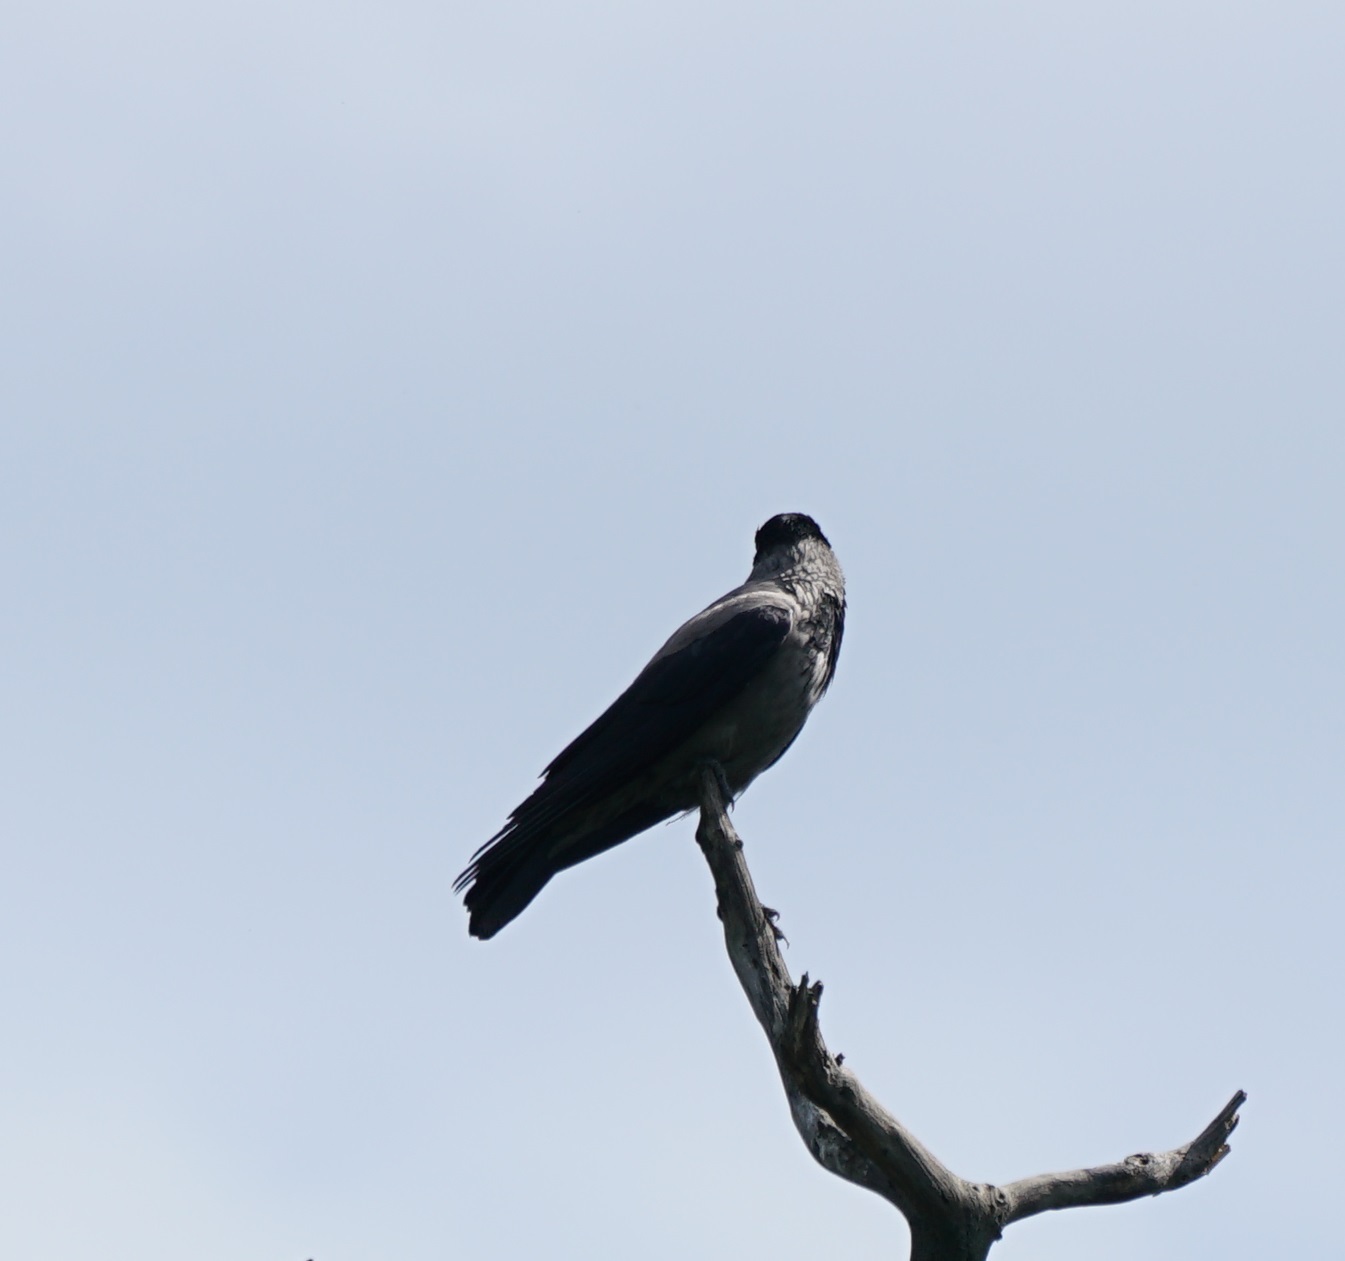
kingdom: Animalia
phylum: Chordata
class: Aves
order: Passeriformes
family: Corvidae
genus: Corvus
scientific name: Corvus cornix
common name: Hooded crow
